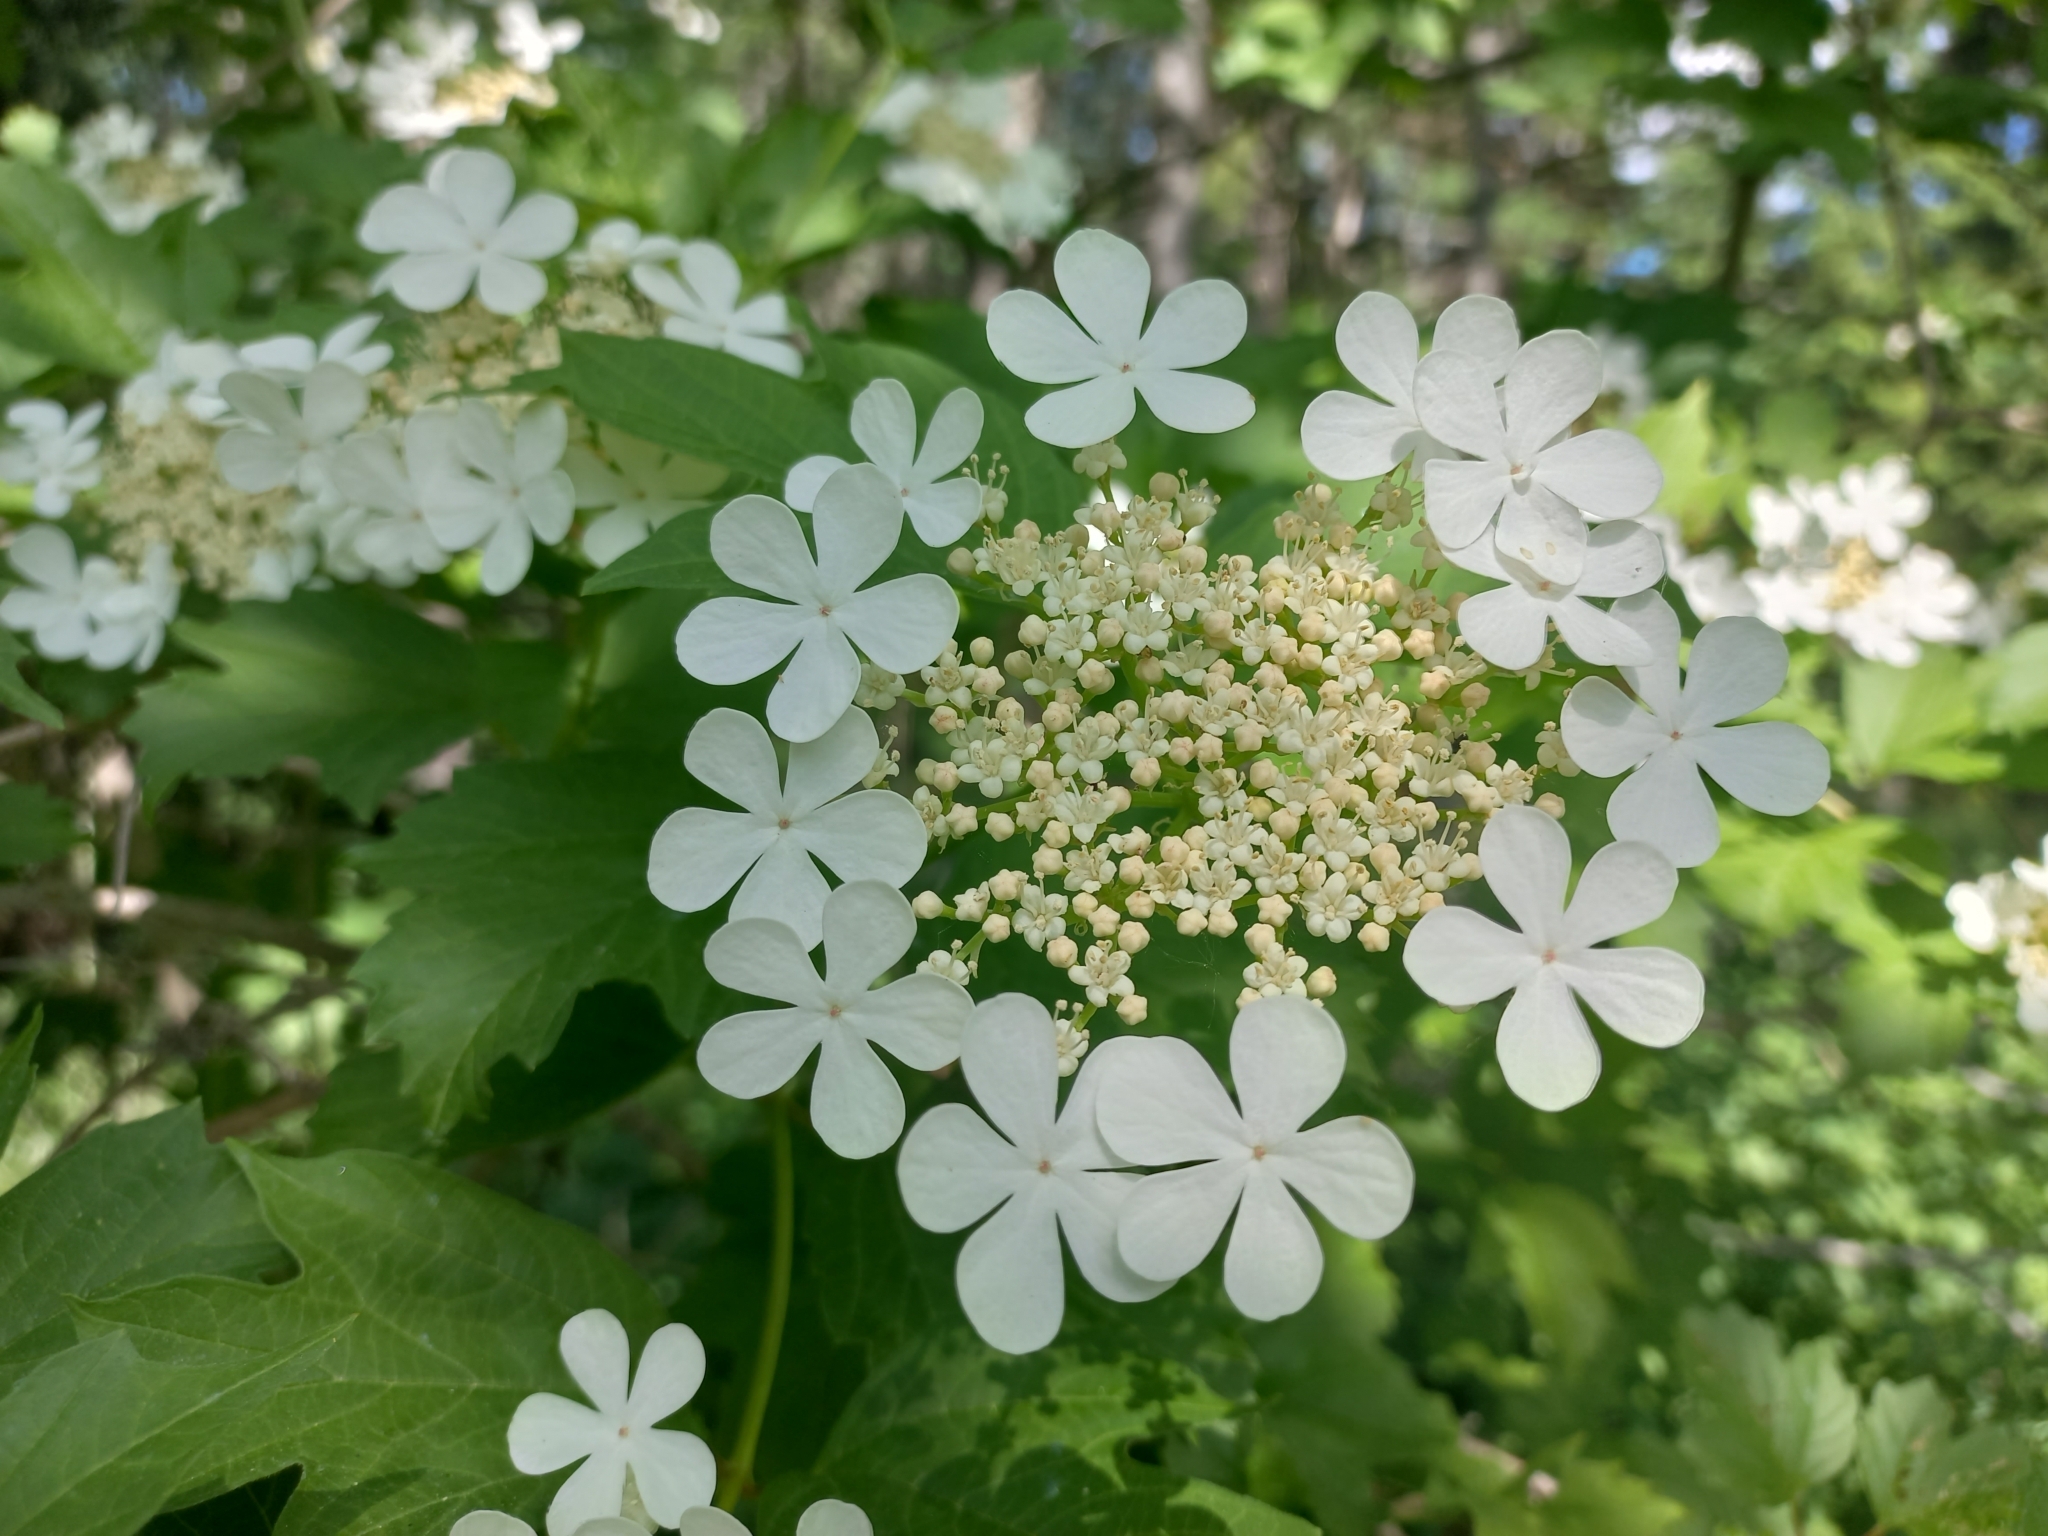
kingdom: Plantae
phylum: Tracheophyta
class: Magnoliopsida
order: Dipsacales
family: Viburnaceae
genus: Viburnum
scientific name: Viburnum opulus
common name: Guelder-rose
